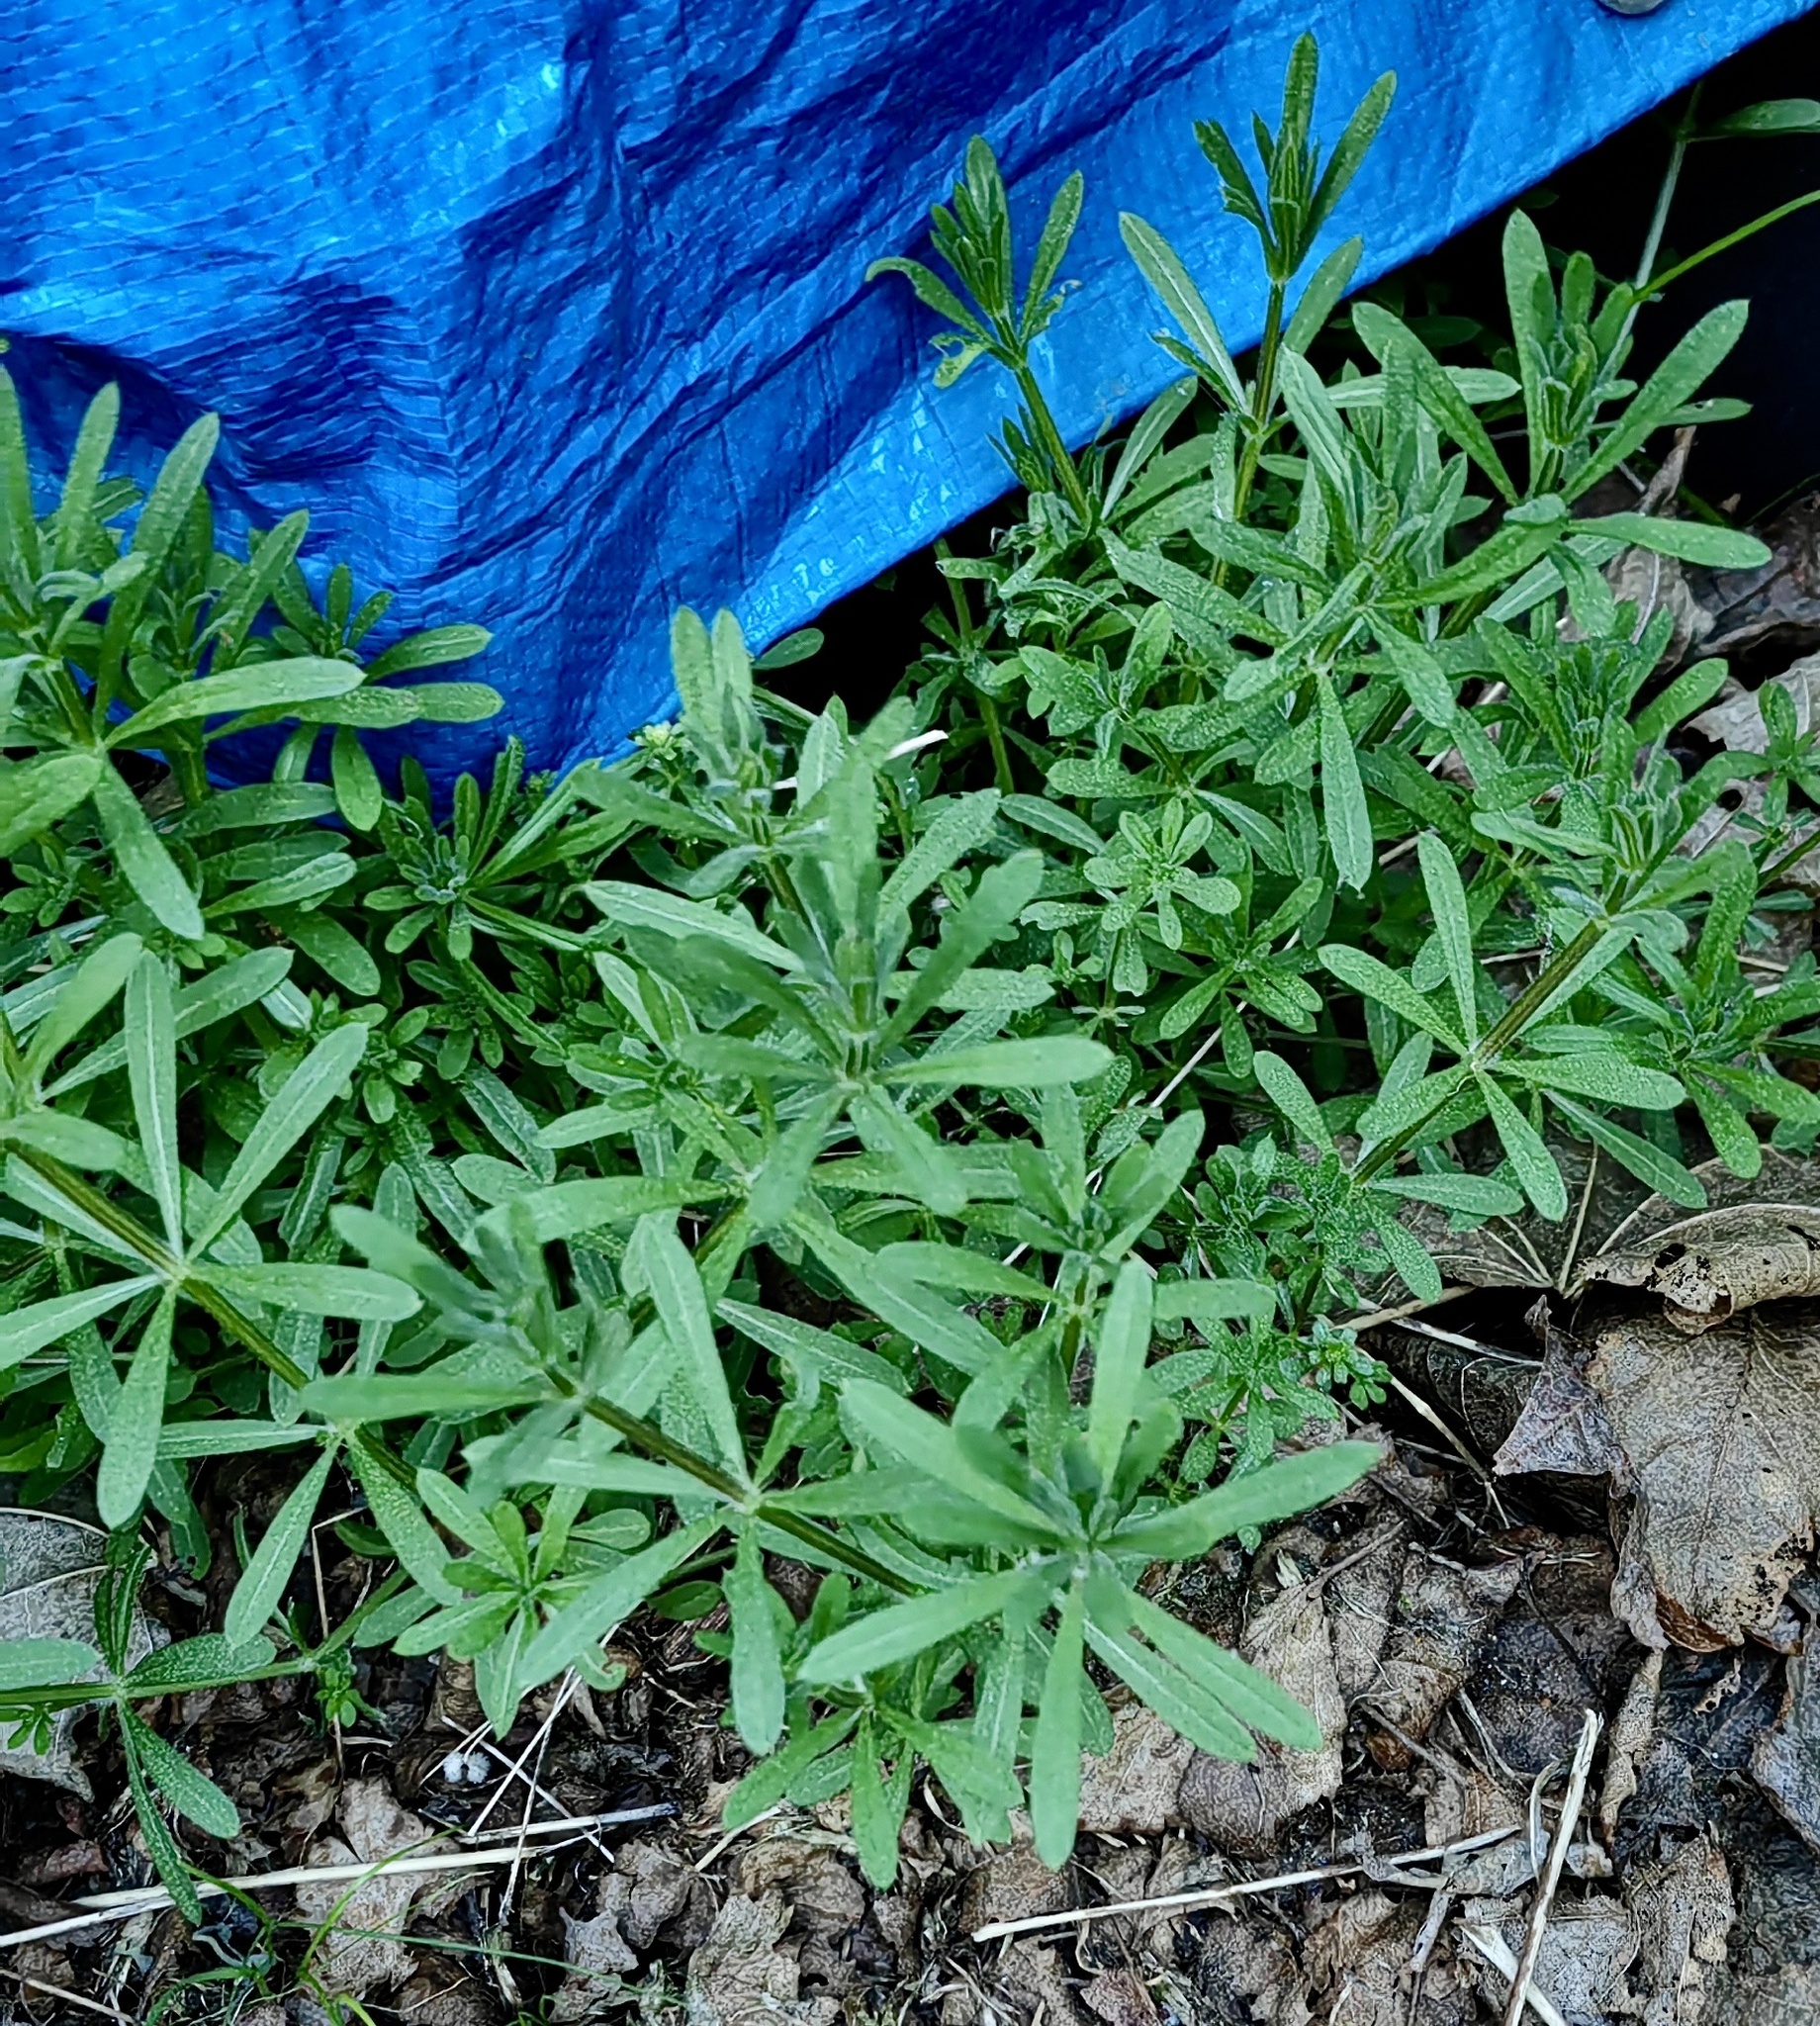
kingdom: Plantae
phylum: Tracheophyta
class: Magnoliopsida
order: Gentianales
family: Rubiaceae
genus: Galium
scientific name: Galium aparine
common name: Cleavers
